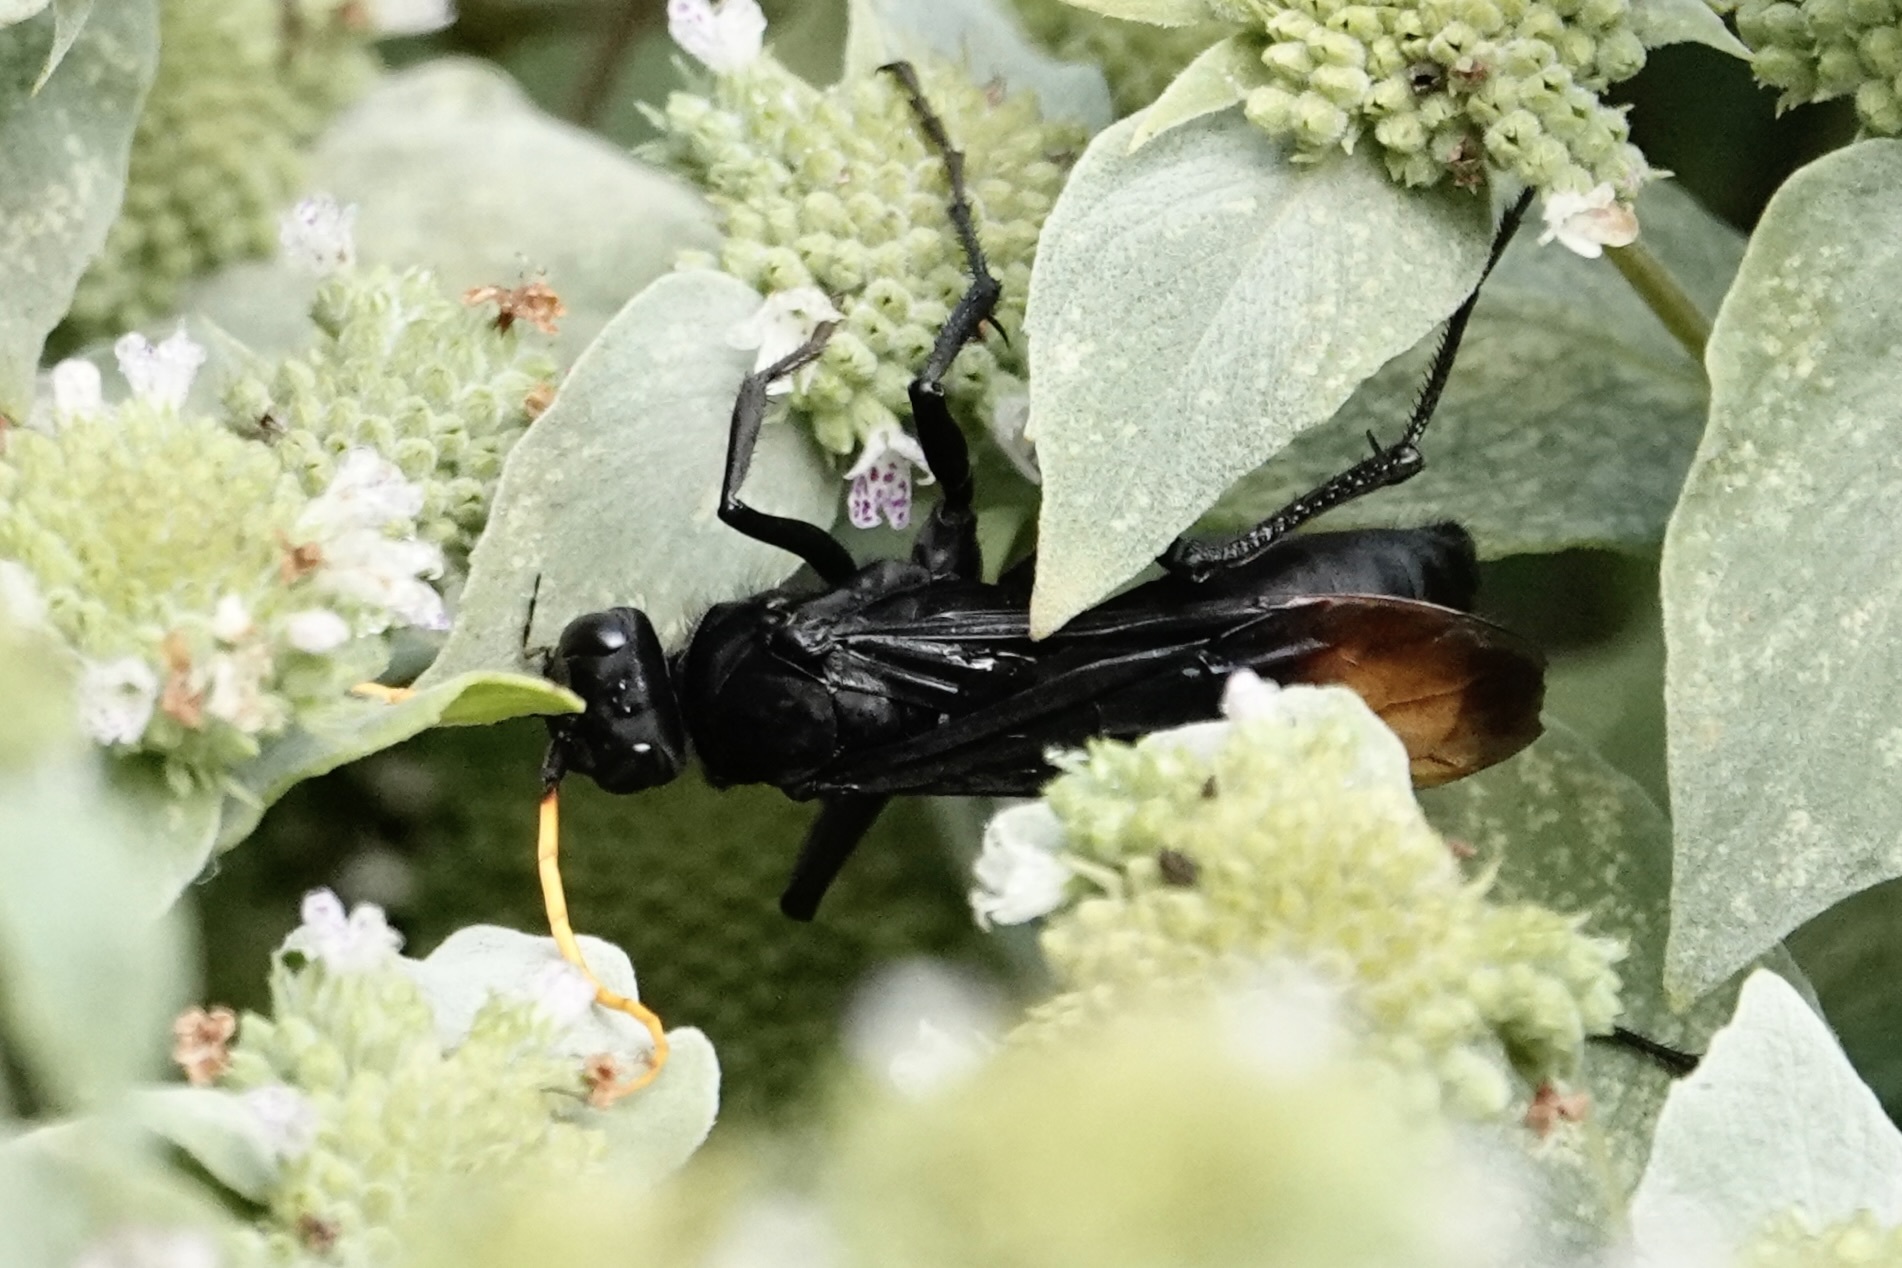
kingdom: Animalia
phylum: Arthropoda
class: Insecta
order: Hymenoptera
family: Pompilidae
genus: Entypus
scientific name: Entypus unifasciatus
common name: Eastern tawny-horned spider wasp
